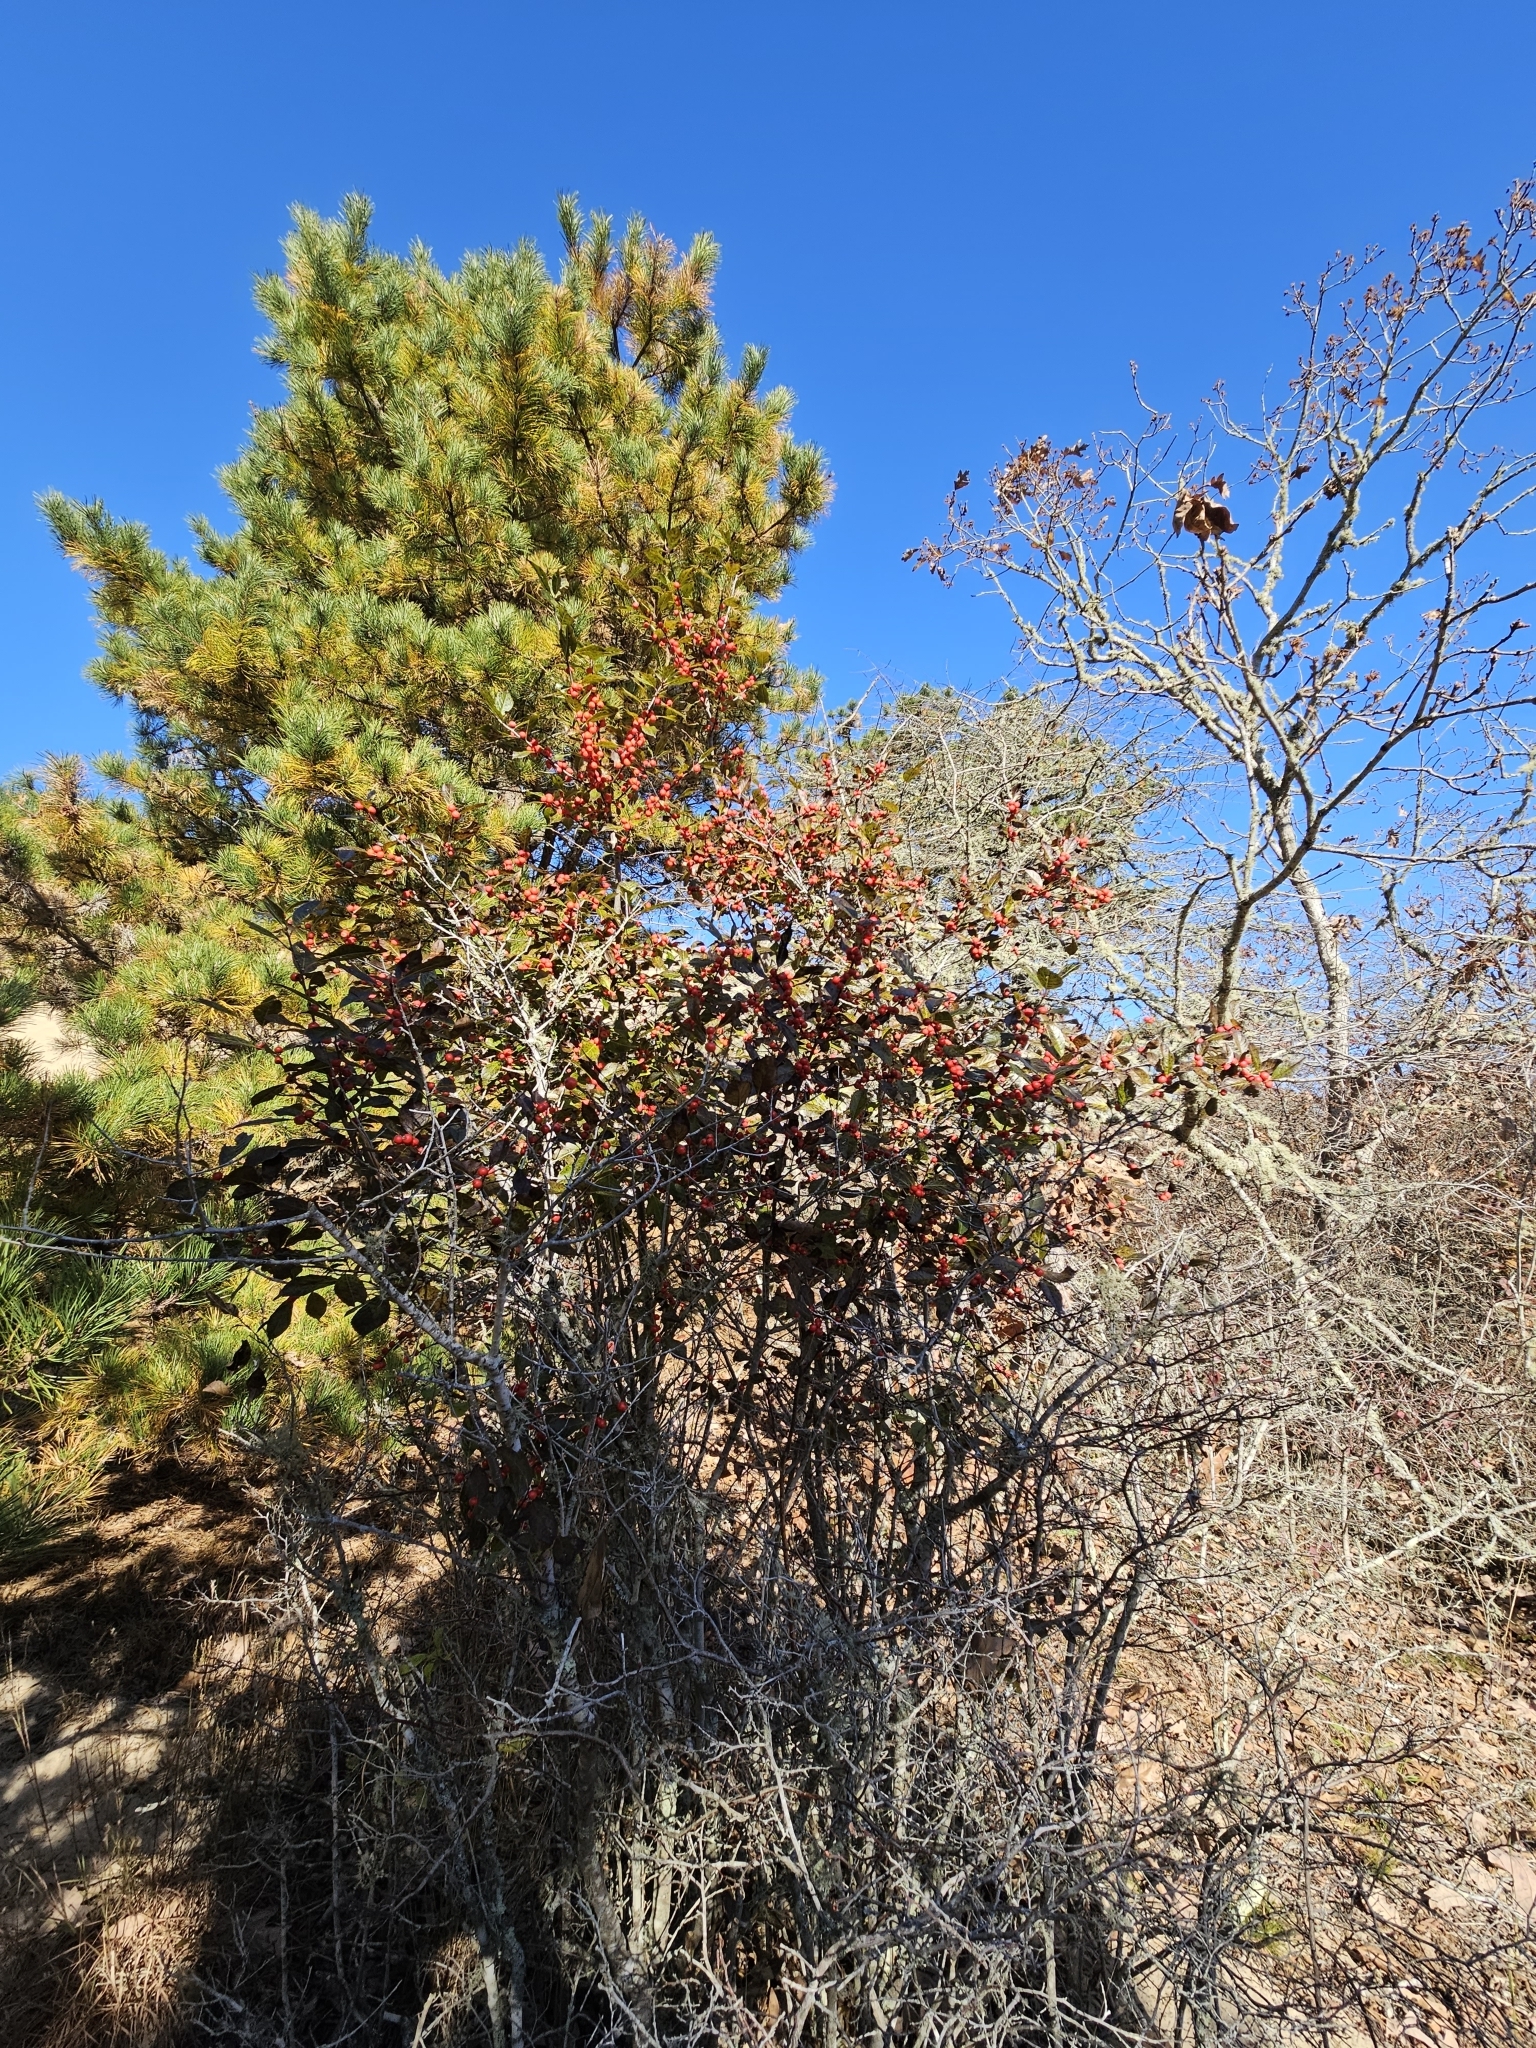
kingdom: Plantae
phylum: Tracheophyta
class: Magnoliopsida
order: Aquifoliales
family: Aquifoliaceae
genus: Ilex
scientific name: Ilex verticillata
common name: Virginia winterberry
